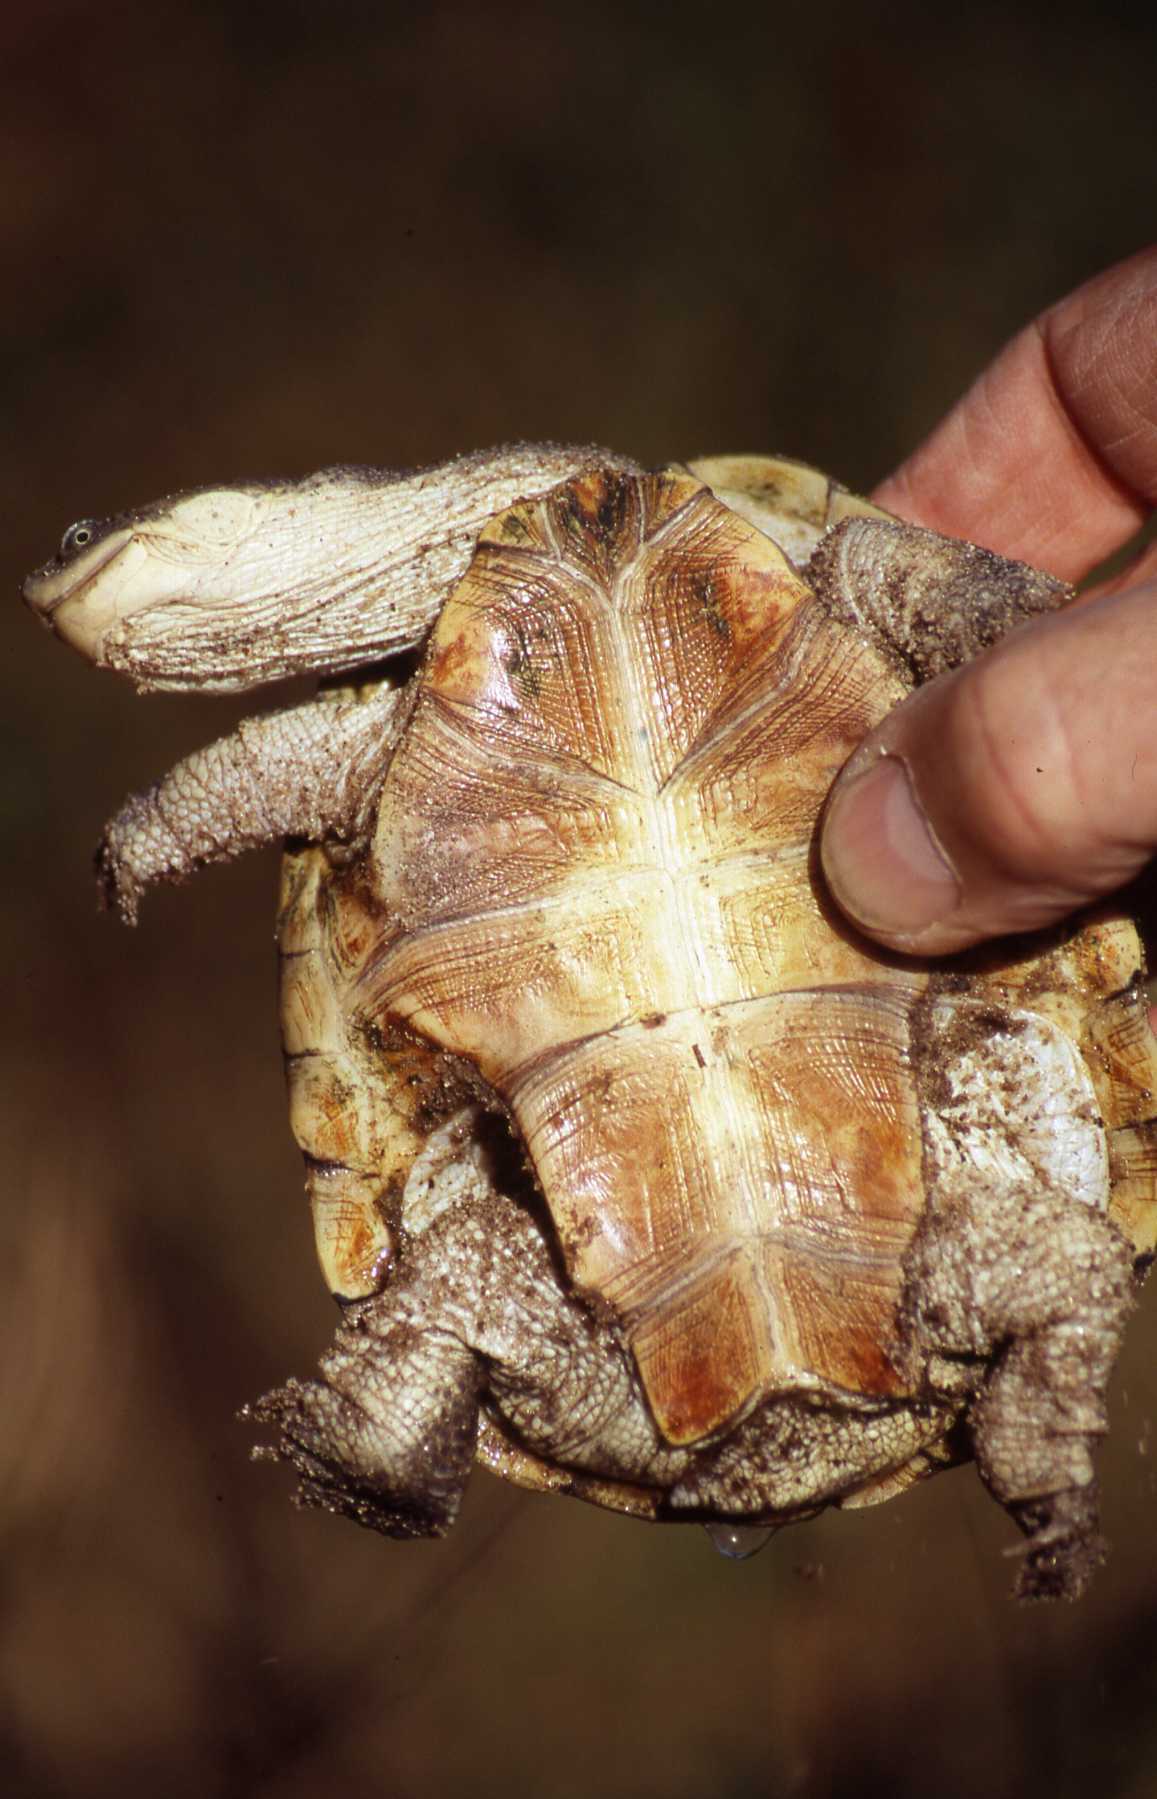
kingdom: Animalia
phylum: Chordata
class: Testudines
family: Pelomedusidae
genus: Pelomedusa
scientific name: Pelomedusa subrufa
